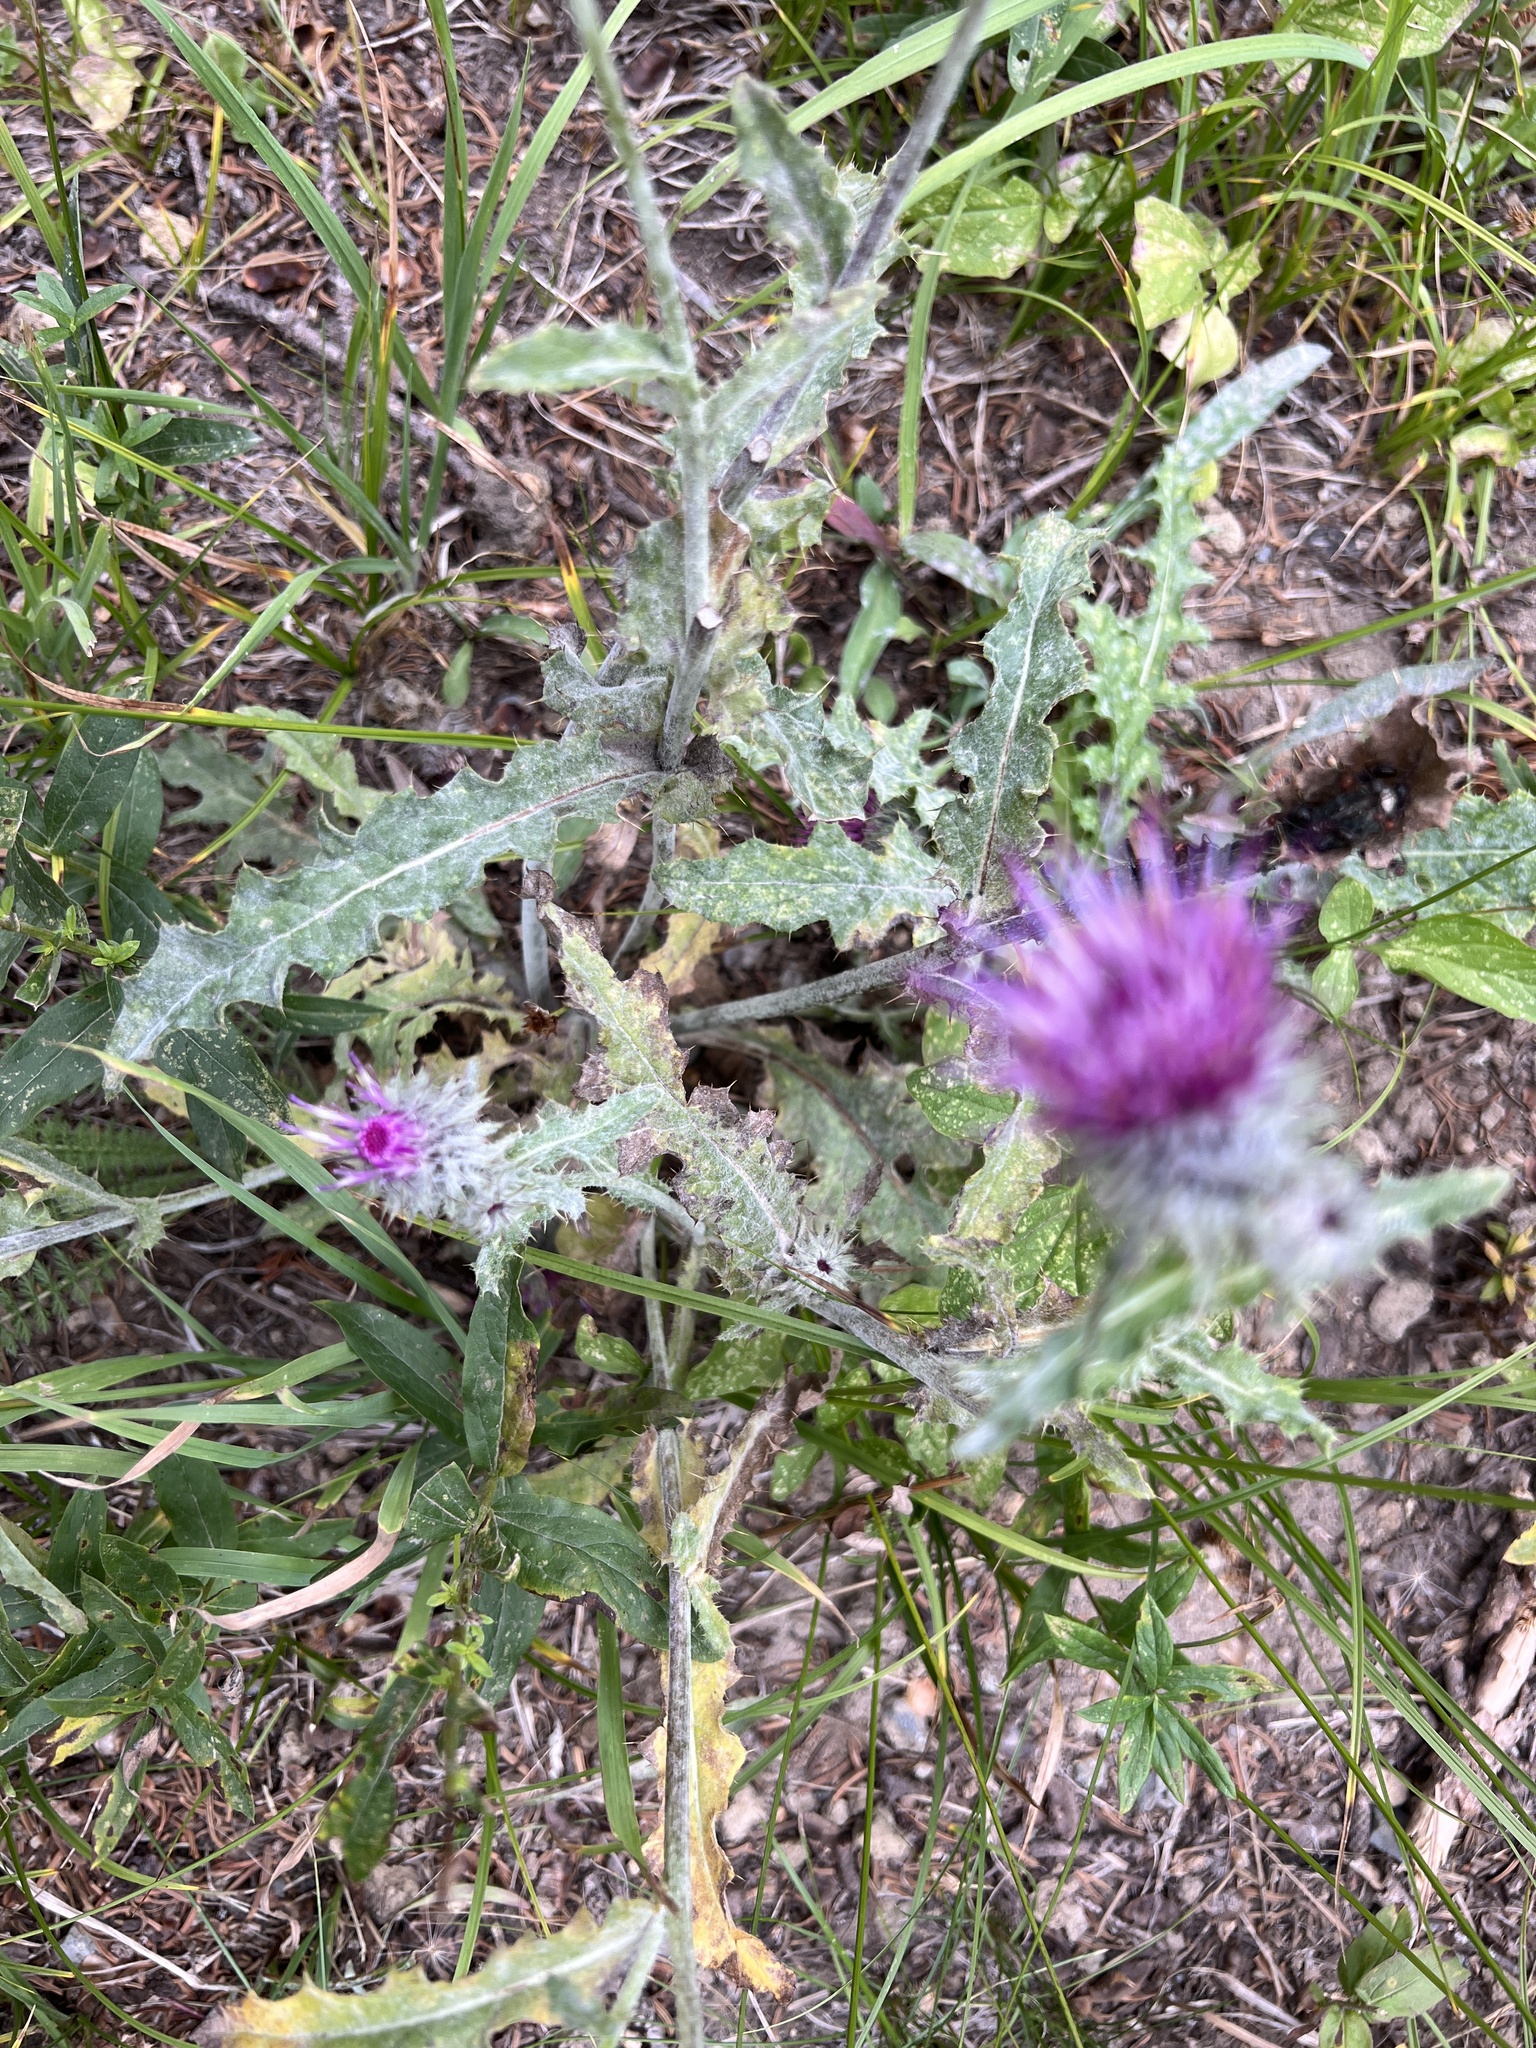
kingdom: Plantae
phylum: Tracheophyta
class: Magnoliopsida
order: Asterales
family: Asteraceae
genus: Cirsium
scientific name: Cirsium edule
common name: Indian thistle
